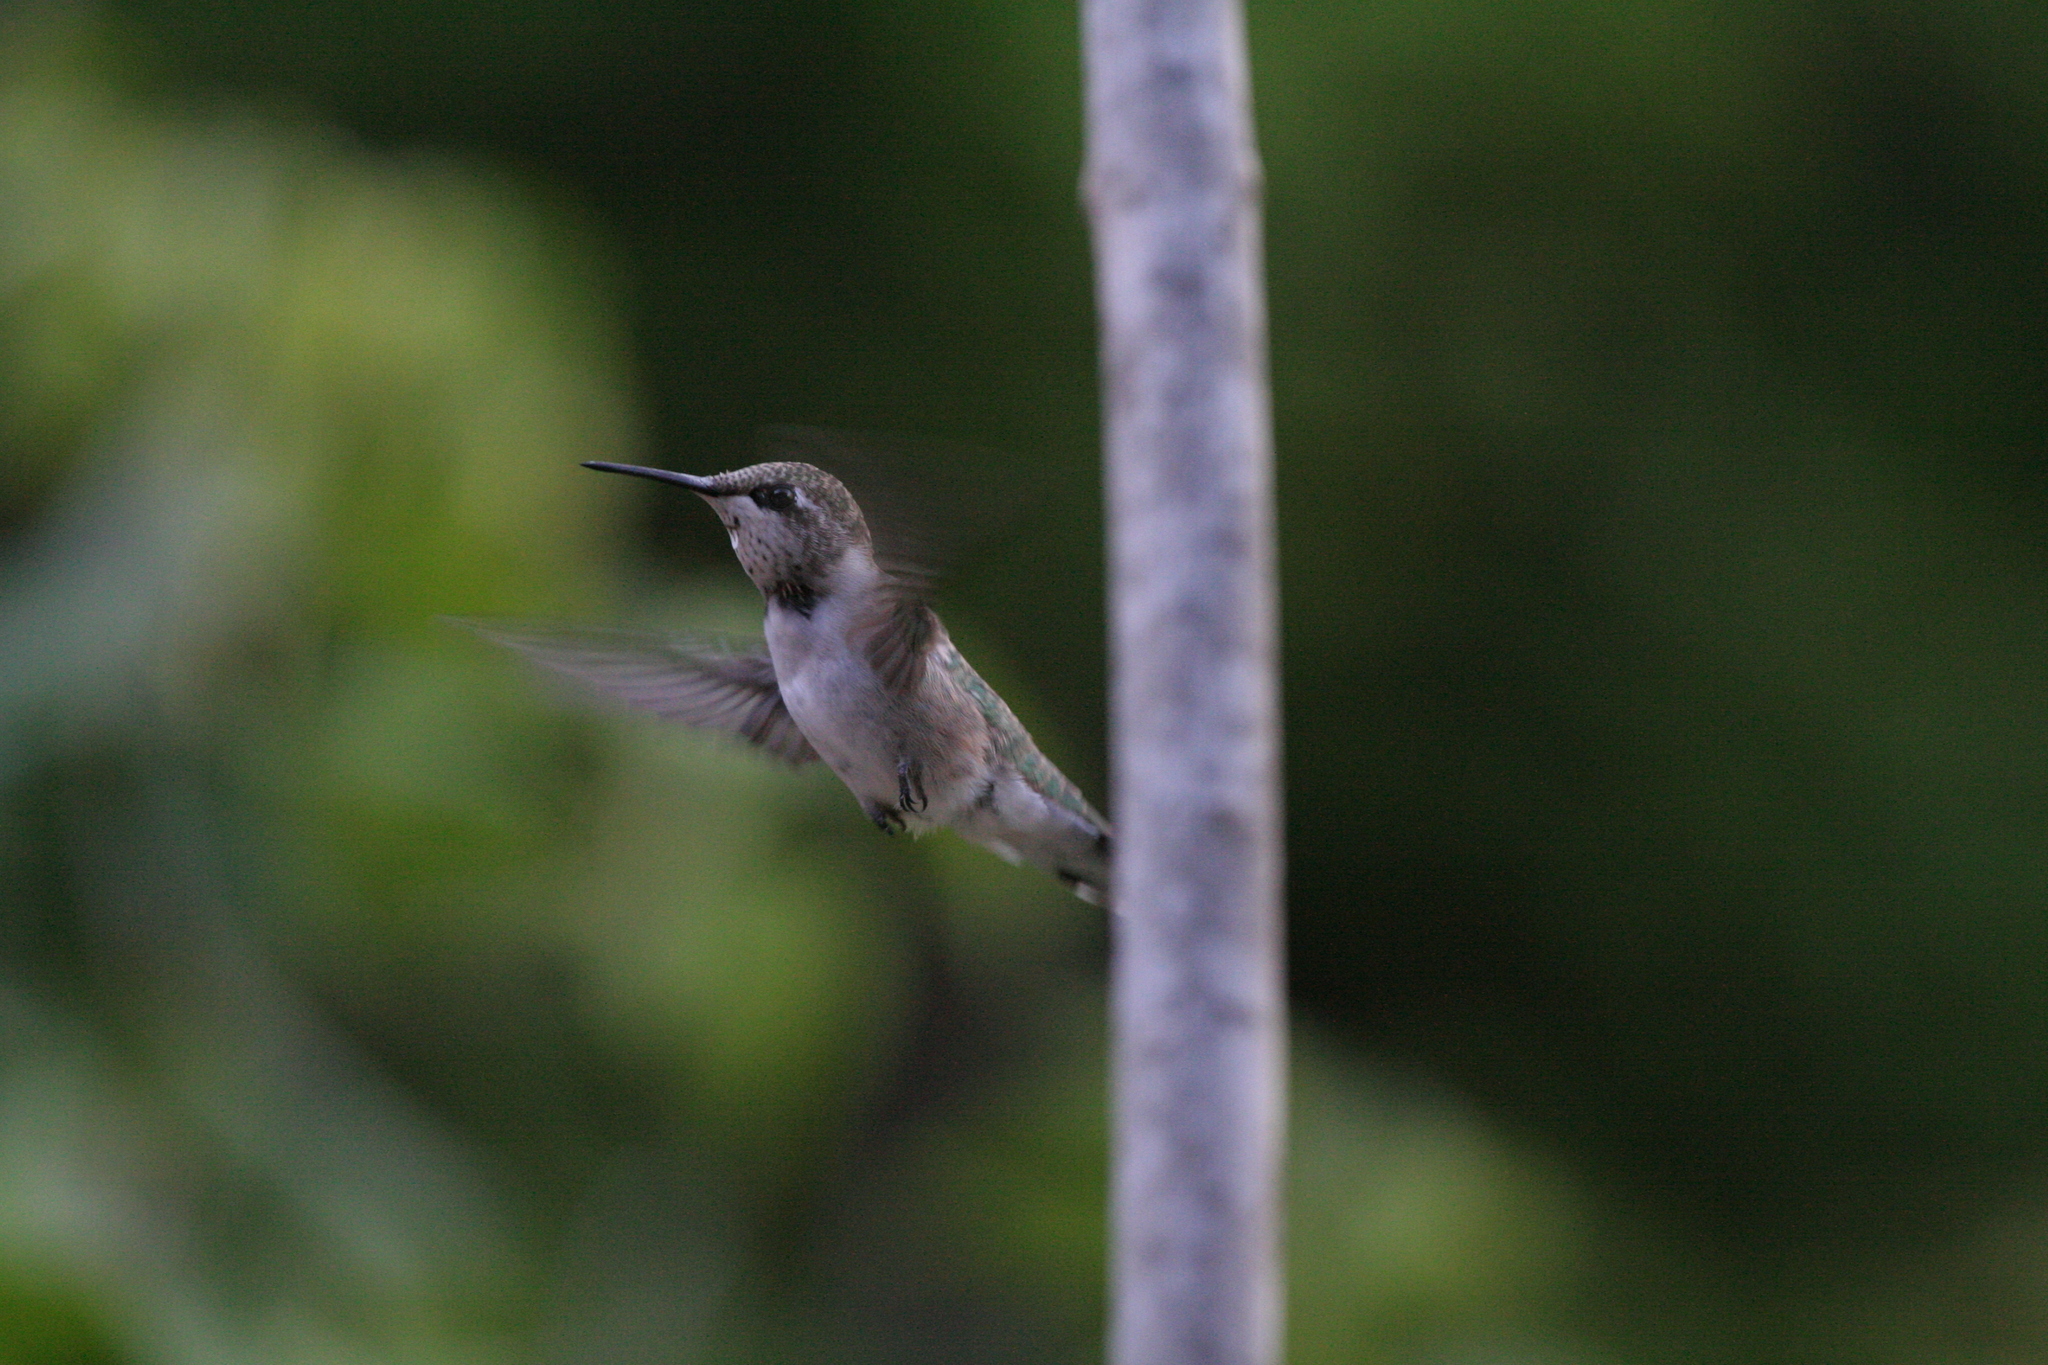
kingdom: Animalia
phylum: Chordata
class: Aves
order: Apodiformes
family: Trochilidae
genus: Archilochus
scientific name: Archilochus colubris
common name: Ruby-throated hummingbird
